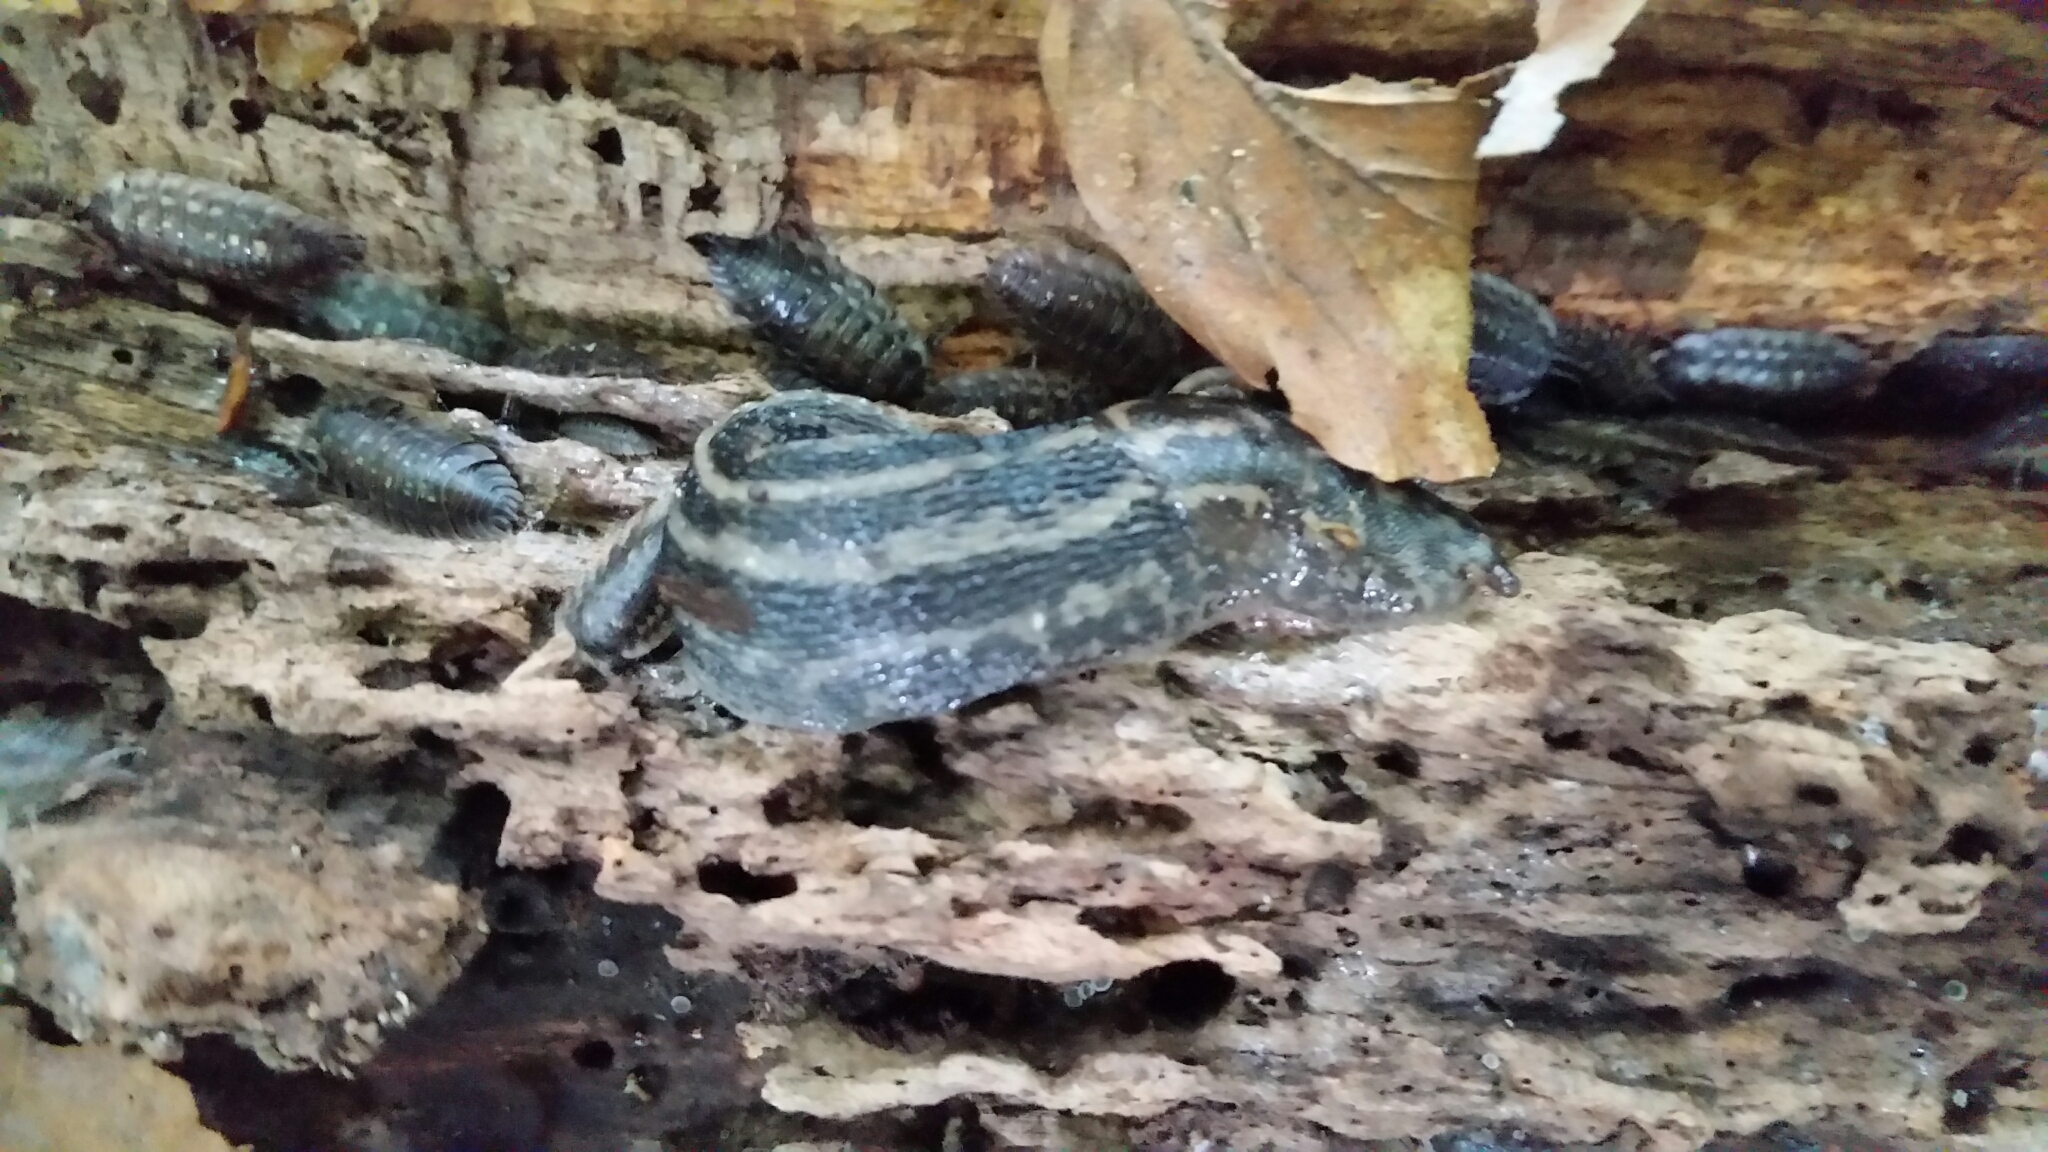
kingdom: Animalia
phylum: Mollusca
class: Gastropoda
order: Stylommatophora
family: Limacidae
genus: Limax
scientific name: Limax maximus
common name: Great grey slug
